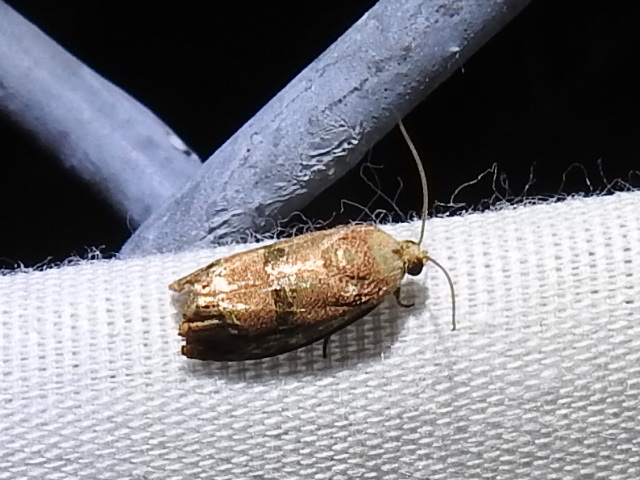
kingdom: Animalia
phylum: Arthropoda
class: Insecta
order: Lepidoptera
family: Tortricidae
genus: Cydia
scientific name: Cydia latiferreana
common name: Filbertworm moth
